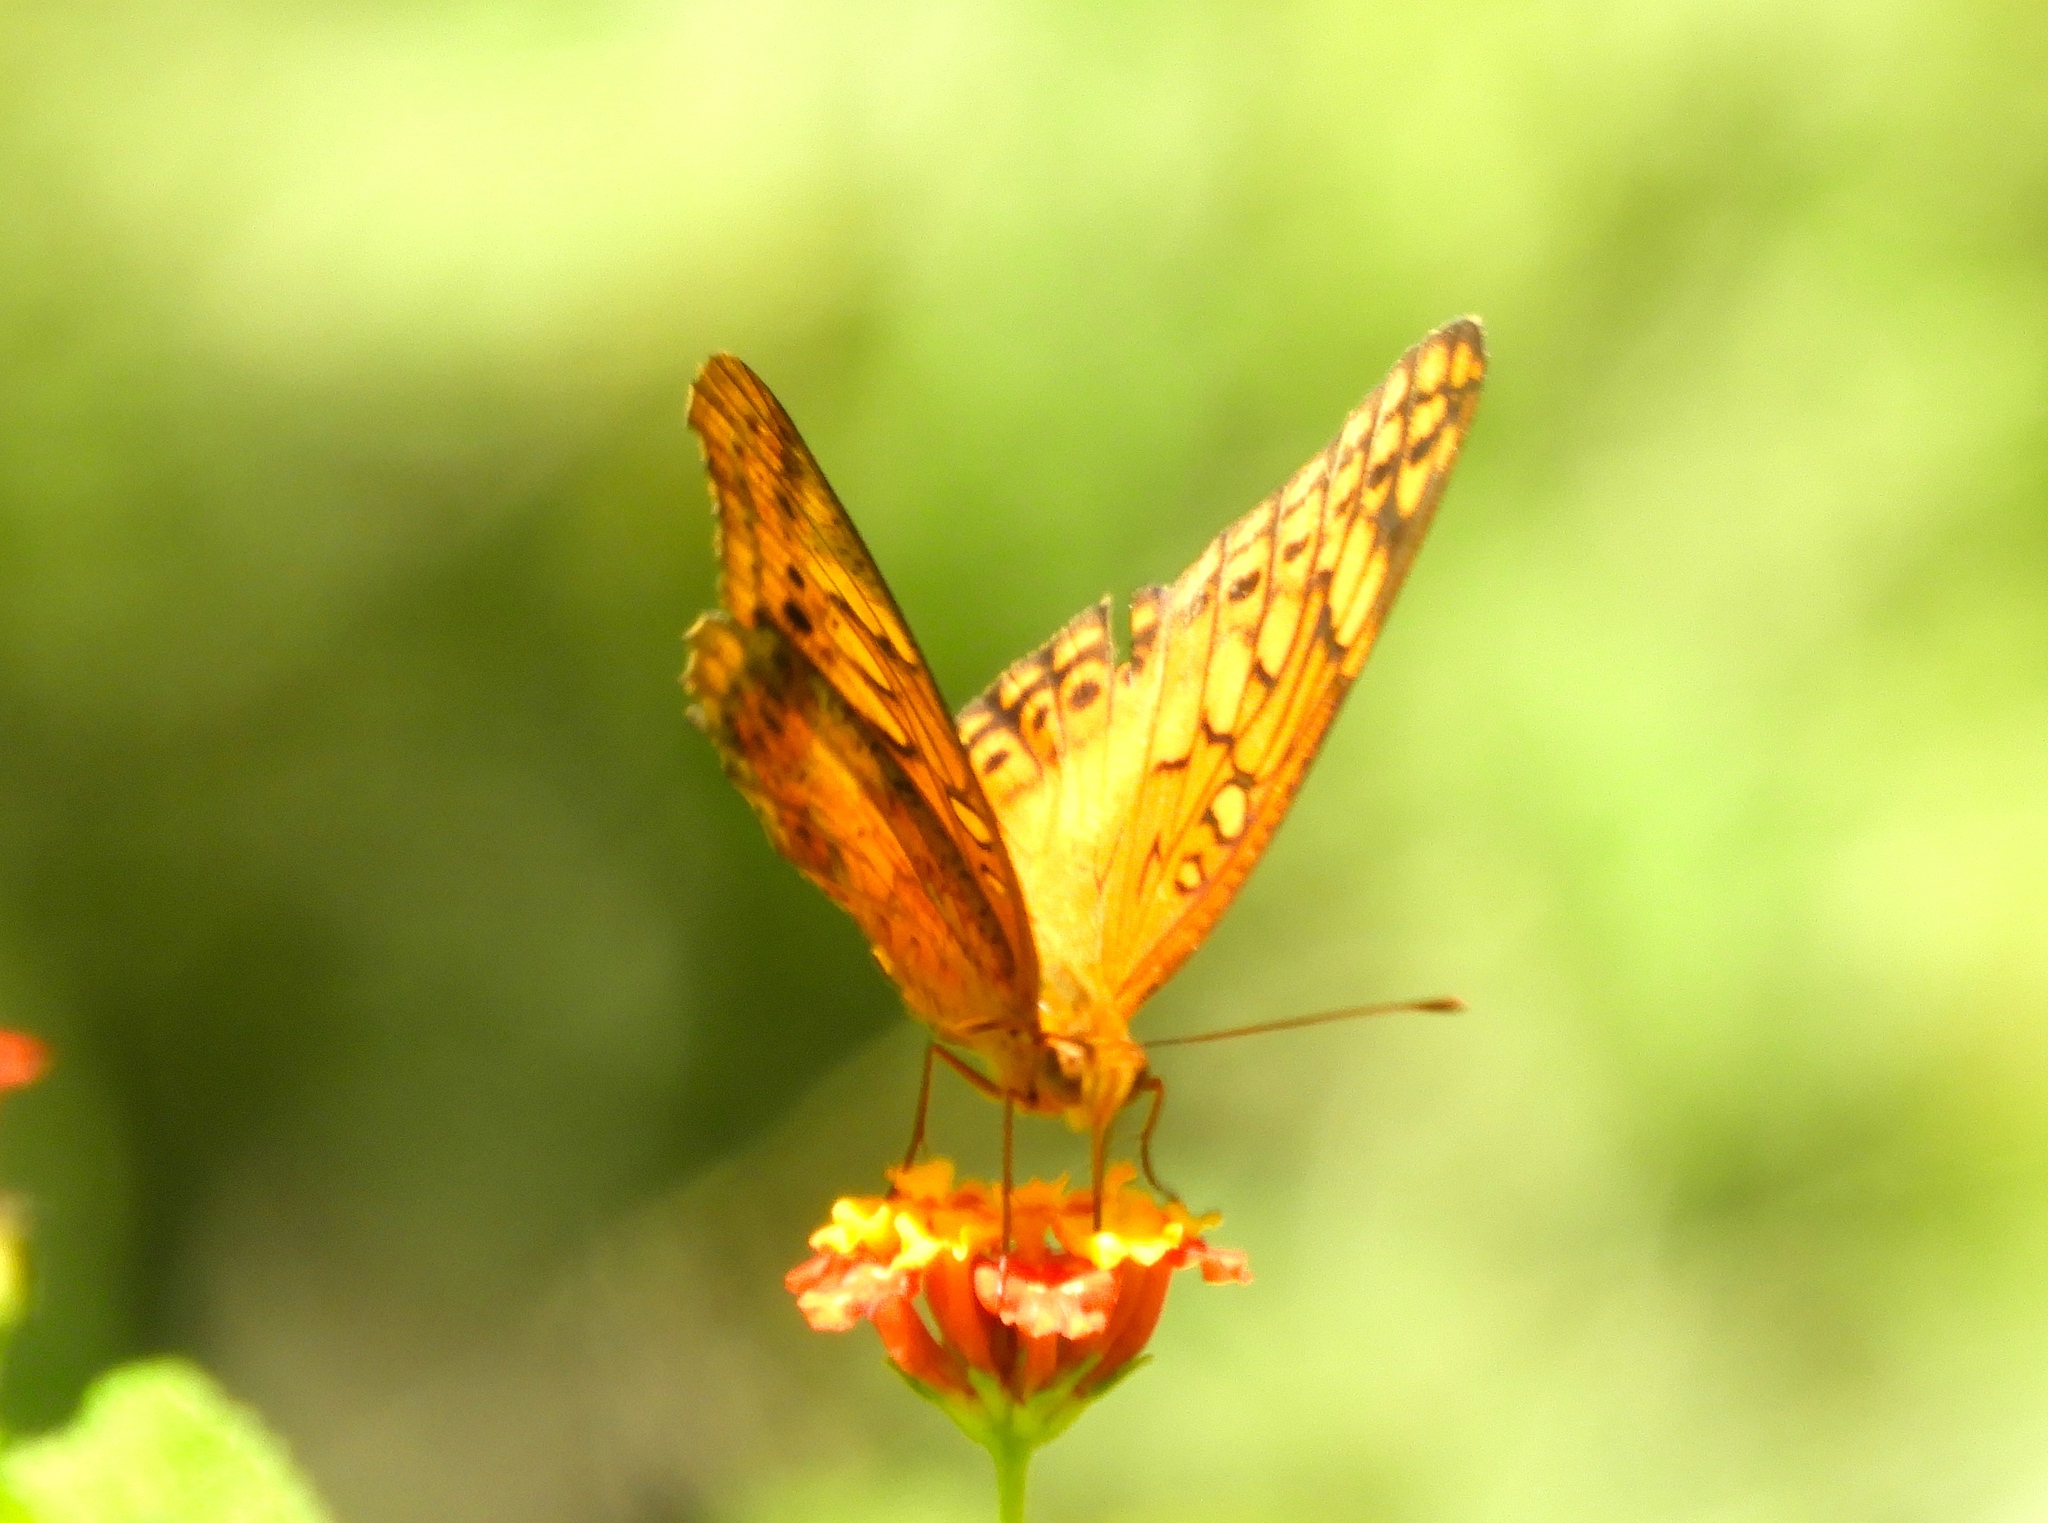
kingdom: Animalia
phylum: Arthropoda
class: Insecta
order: Lepidoptera
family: Nymphalidae
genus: Euptoieta
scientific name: Euptoieta hegesia
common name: Mexican fritillary
